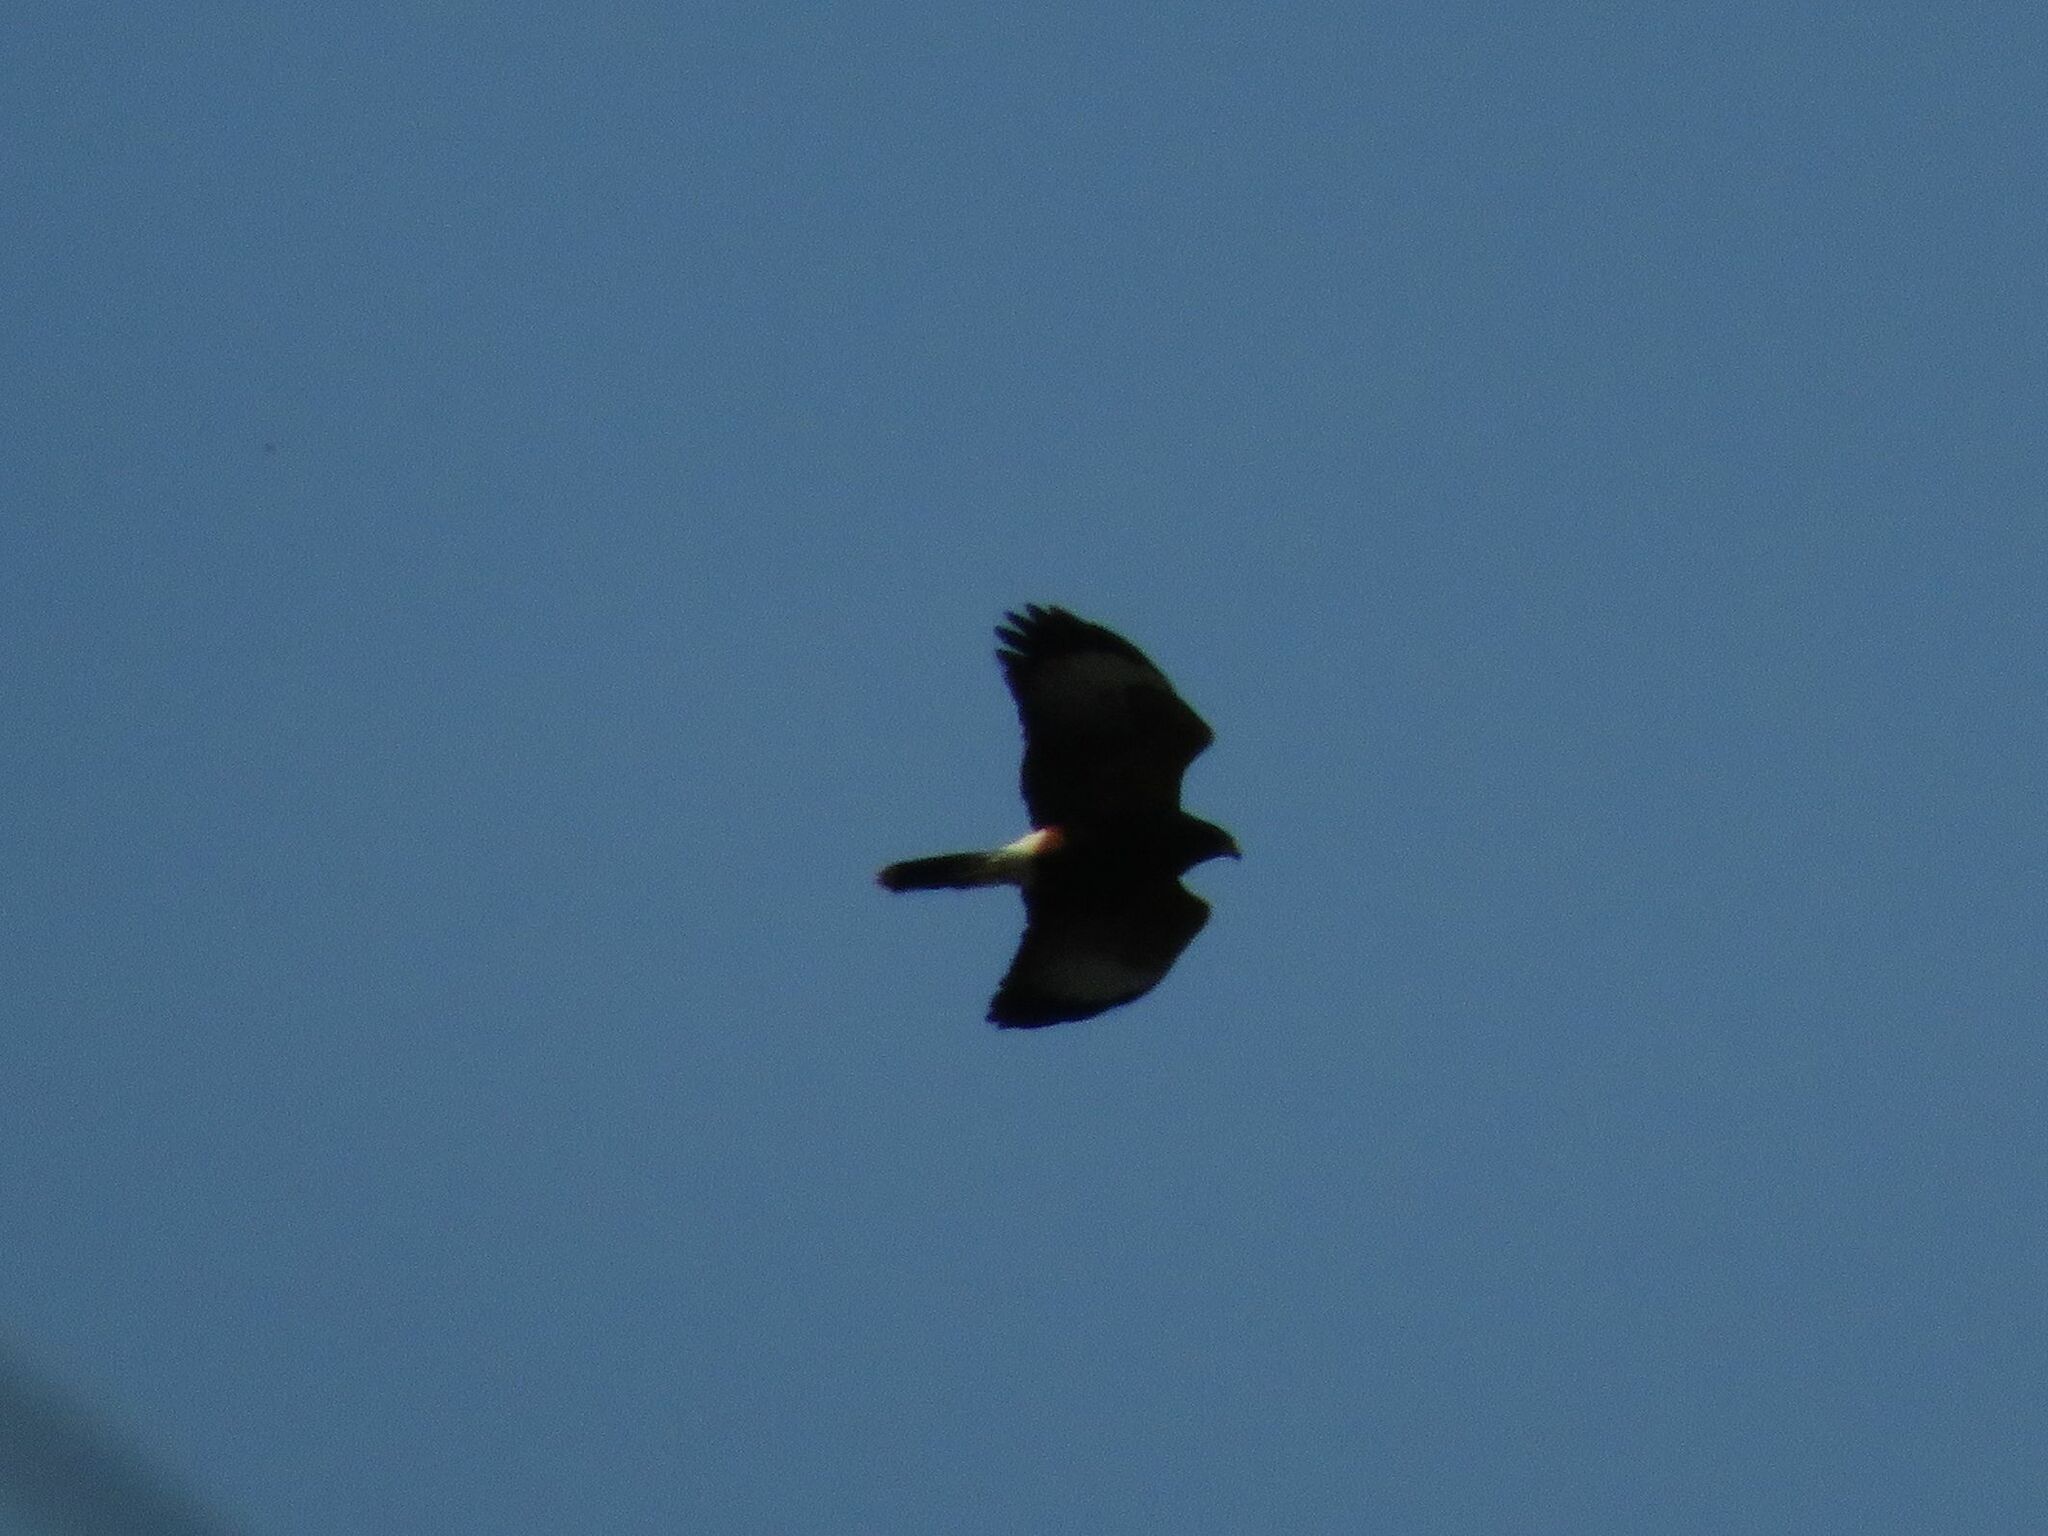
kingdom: Animalia
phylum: Chordata
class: Aves
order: Accipitriformes
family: Accipitridae
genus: Parabuteo
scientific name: Parabuteo unicinctus
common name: Harris's hawk
